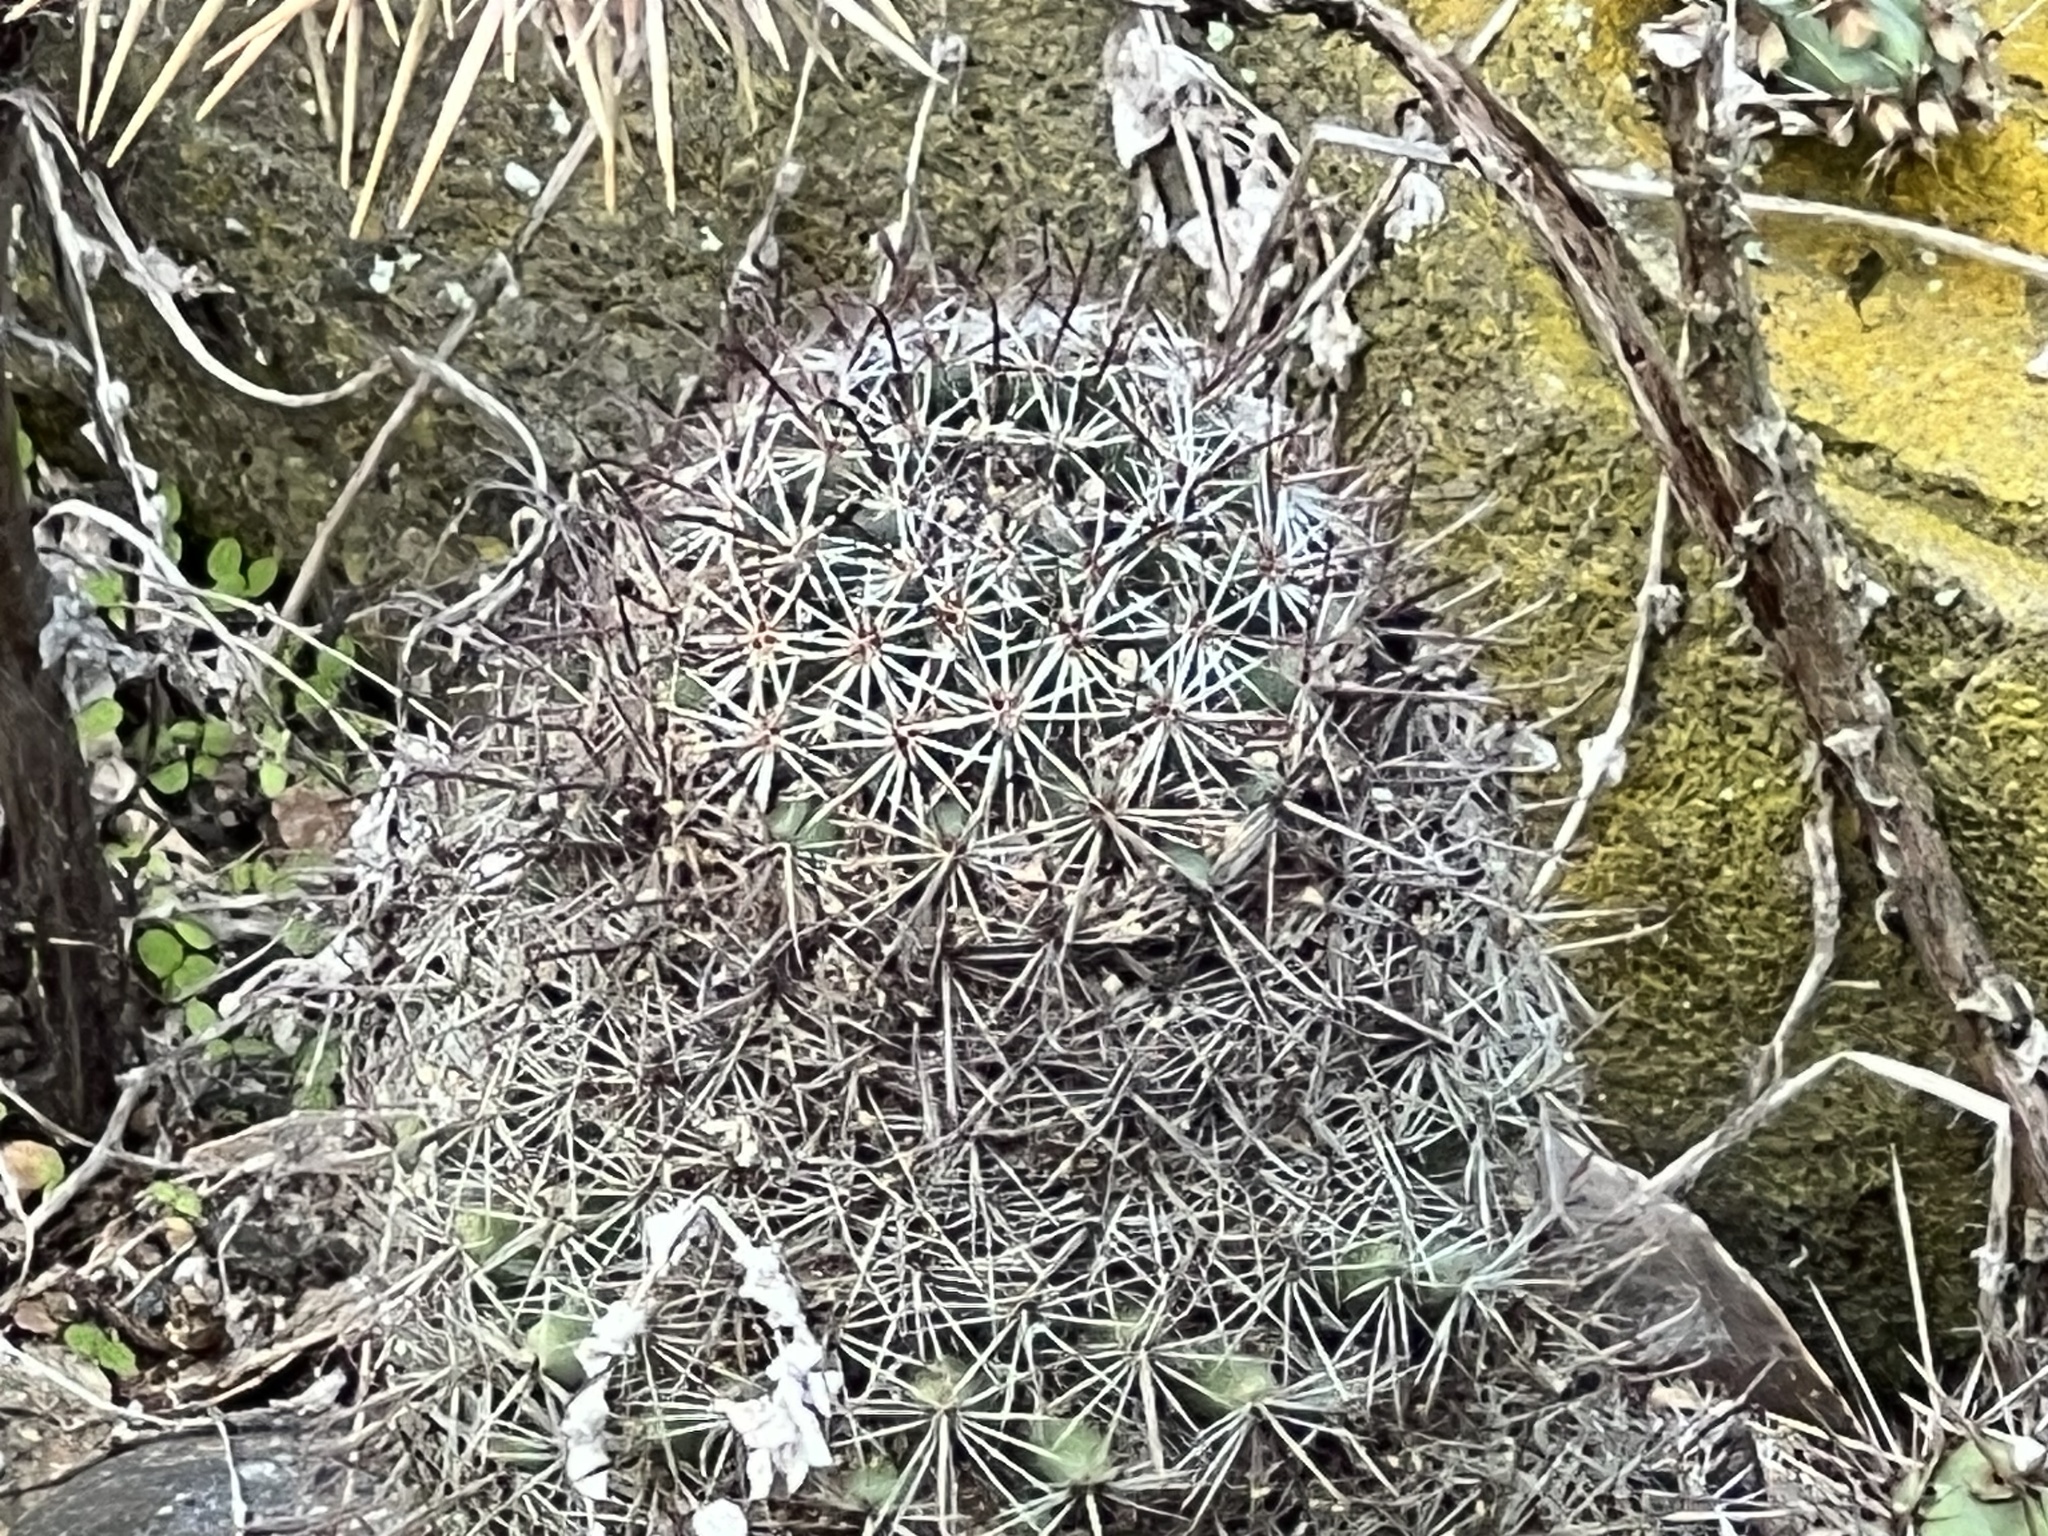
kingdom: Plantae
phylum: Tracheophyta
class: Magnoliopsida
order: Caryophyllales
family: Cactaceae
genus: Cochemiea
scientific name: Cochemiea dioica
